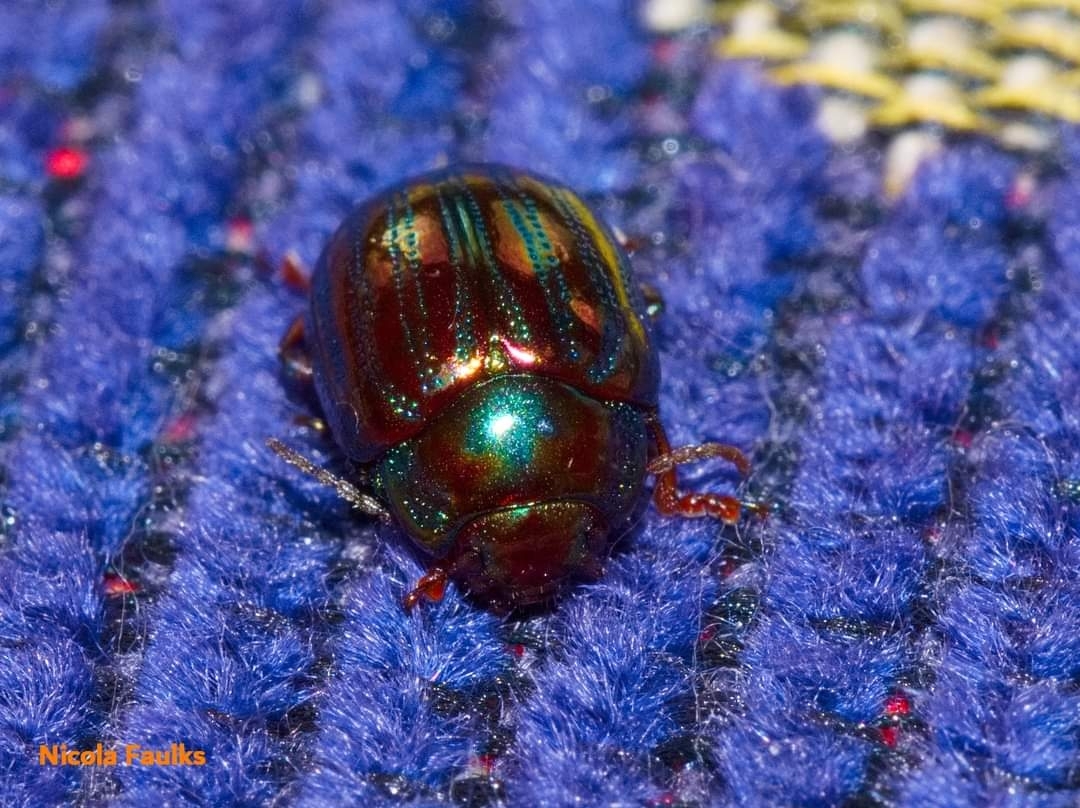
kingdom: Animalia
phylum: Arthropoda
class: Insecta
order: Coleoptera
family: Chrysomelidae
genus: Chrysolina
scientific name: Chrysolina americana
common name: Rosemary beetle
